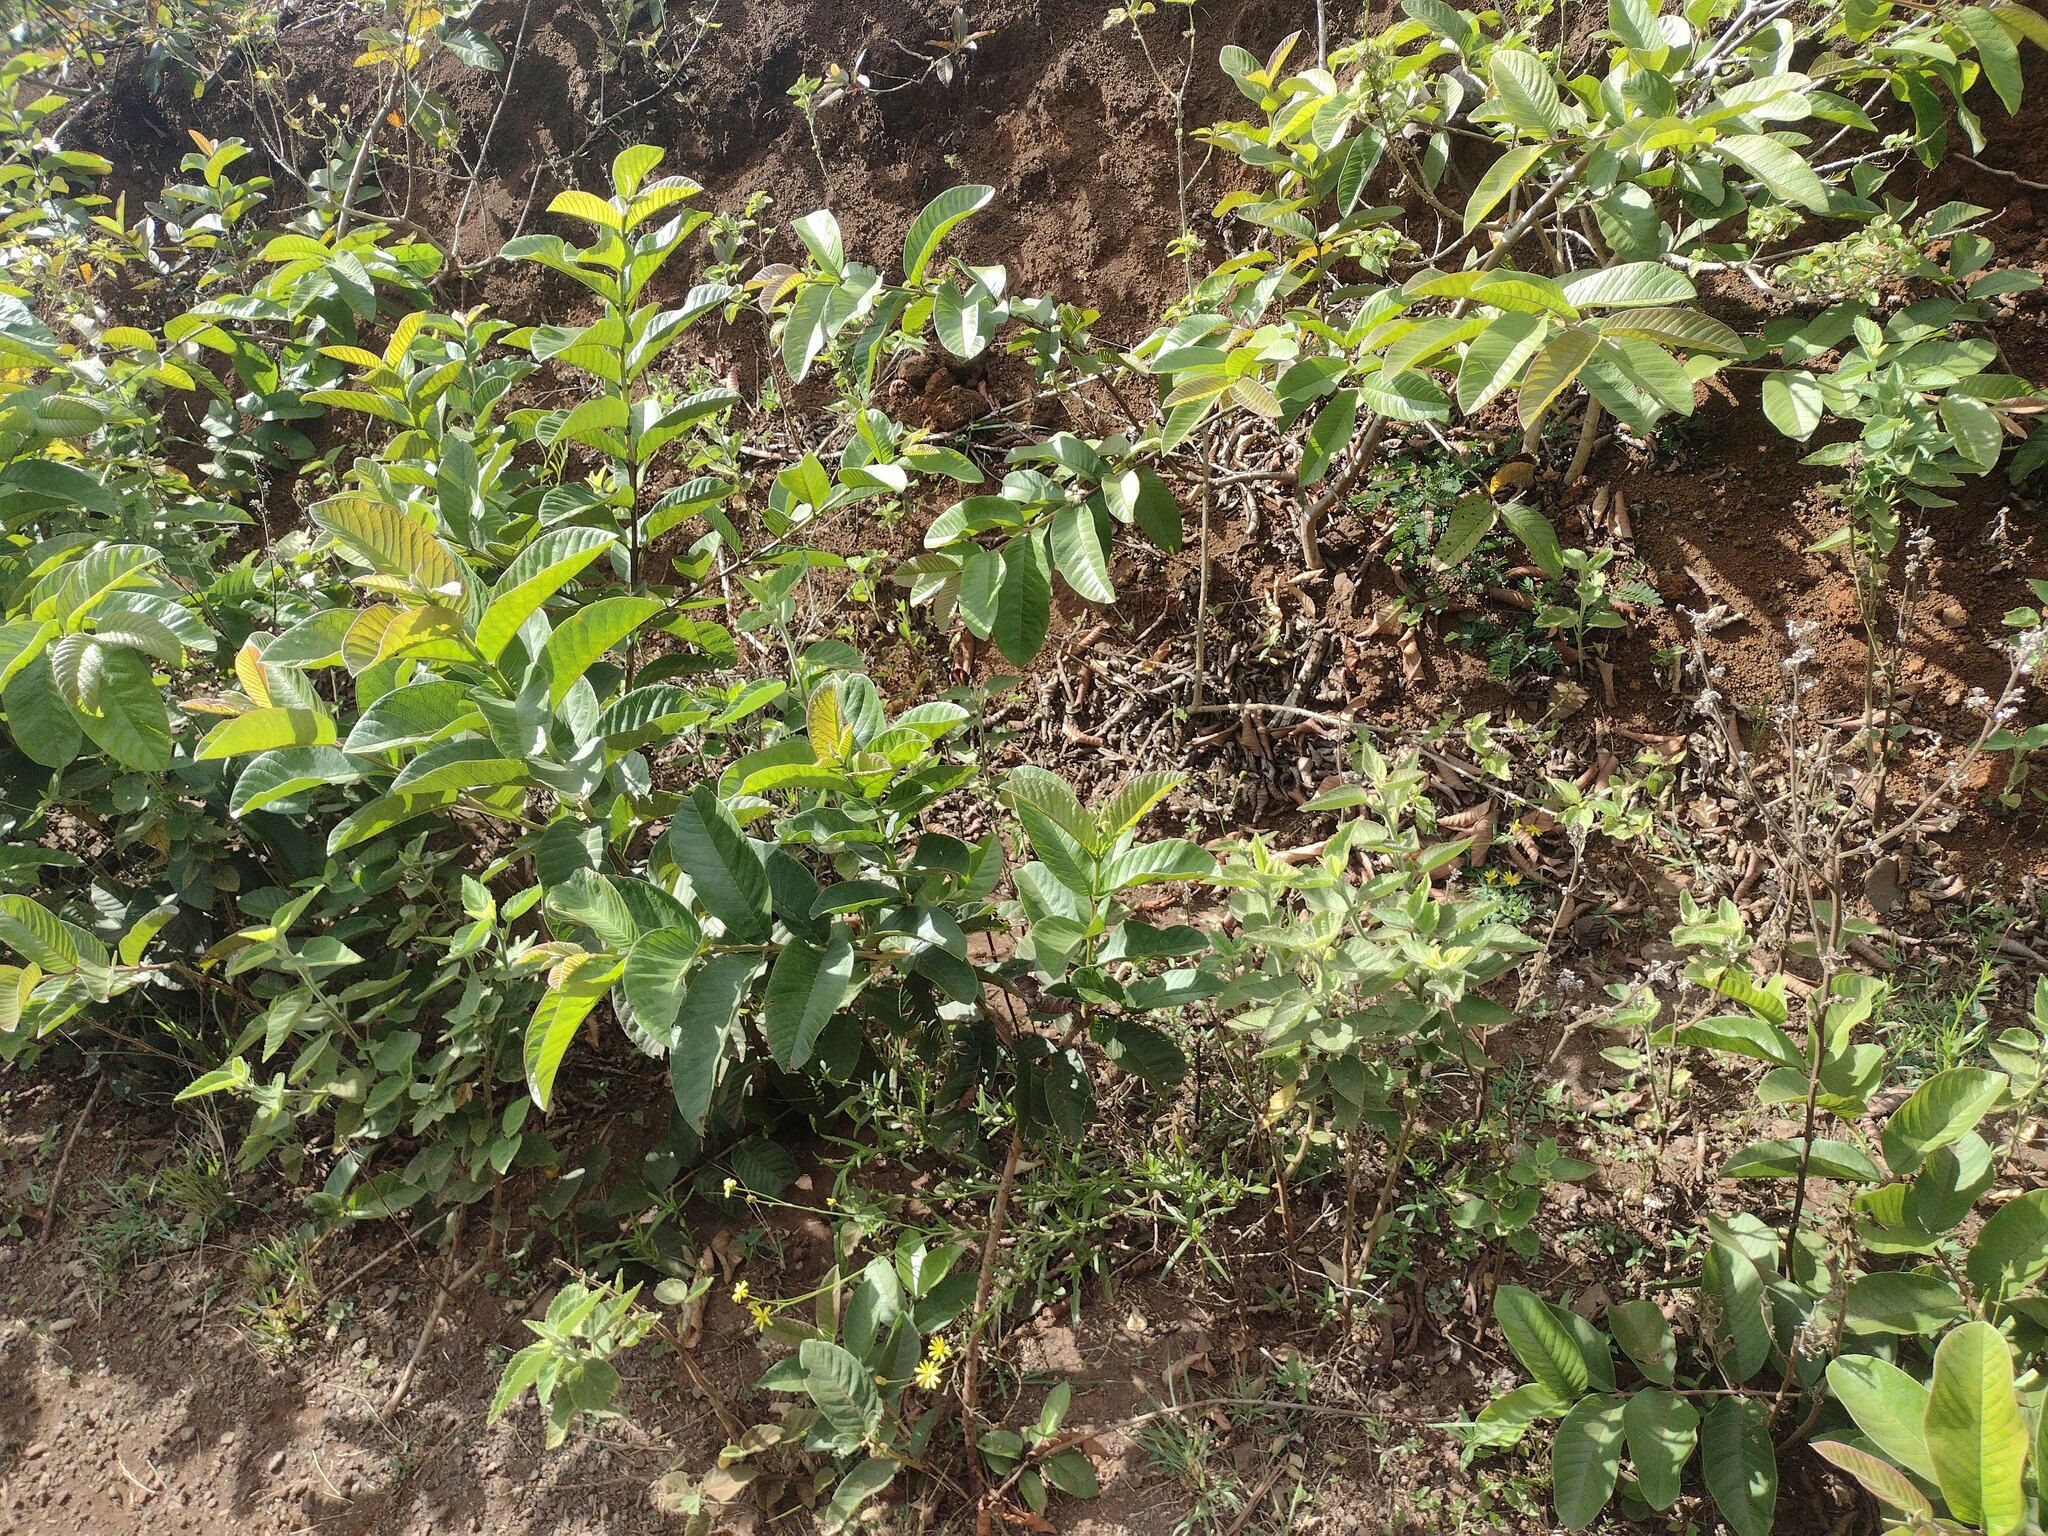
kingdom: Plantae
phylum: Tracheophyta
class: Magnoliopsida
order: Myrtales
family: Myrtaceae
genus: Psidium
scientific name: Psidium guajava
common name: Guava
